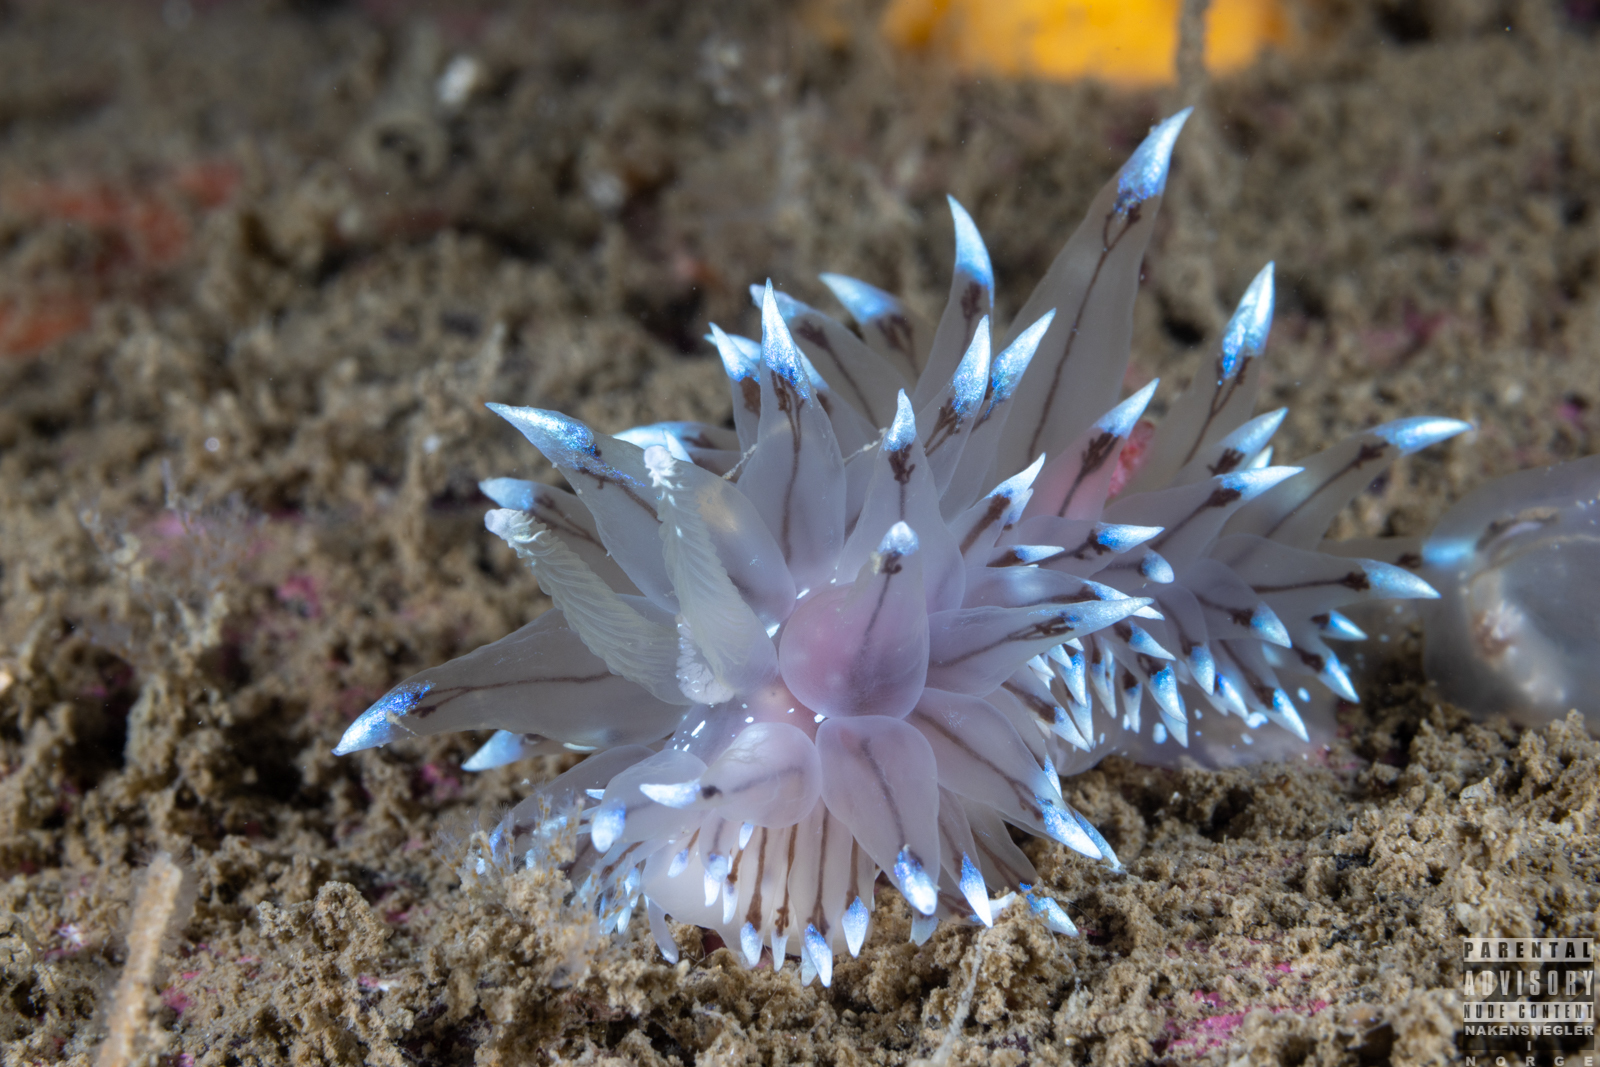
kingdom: Animalia
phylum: Mollusca
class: Gastropoda
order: Nudibranchia
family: Janolidae
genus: Antiopella
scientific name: Antiopella cristata
